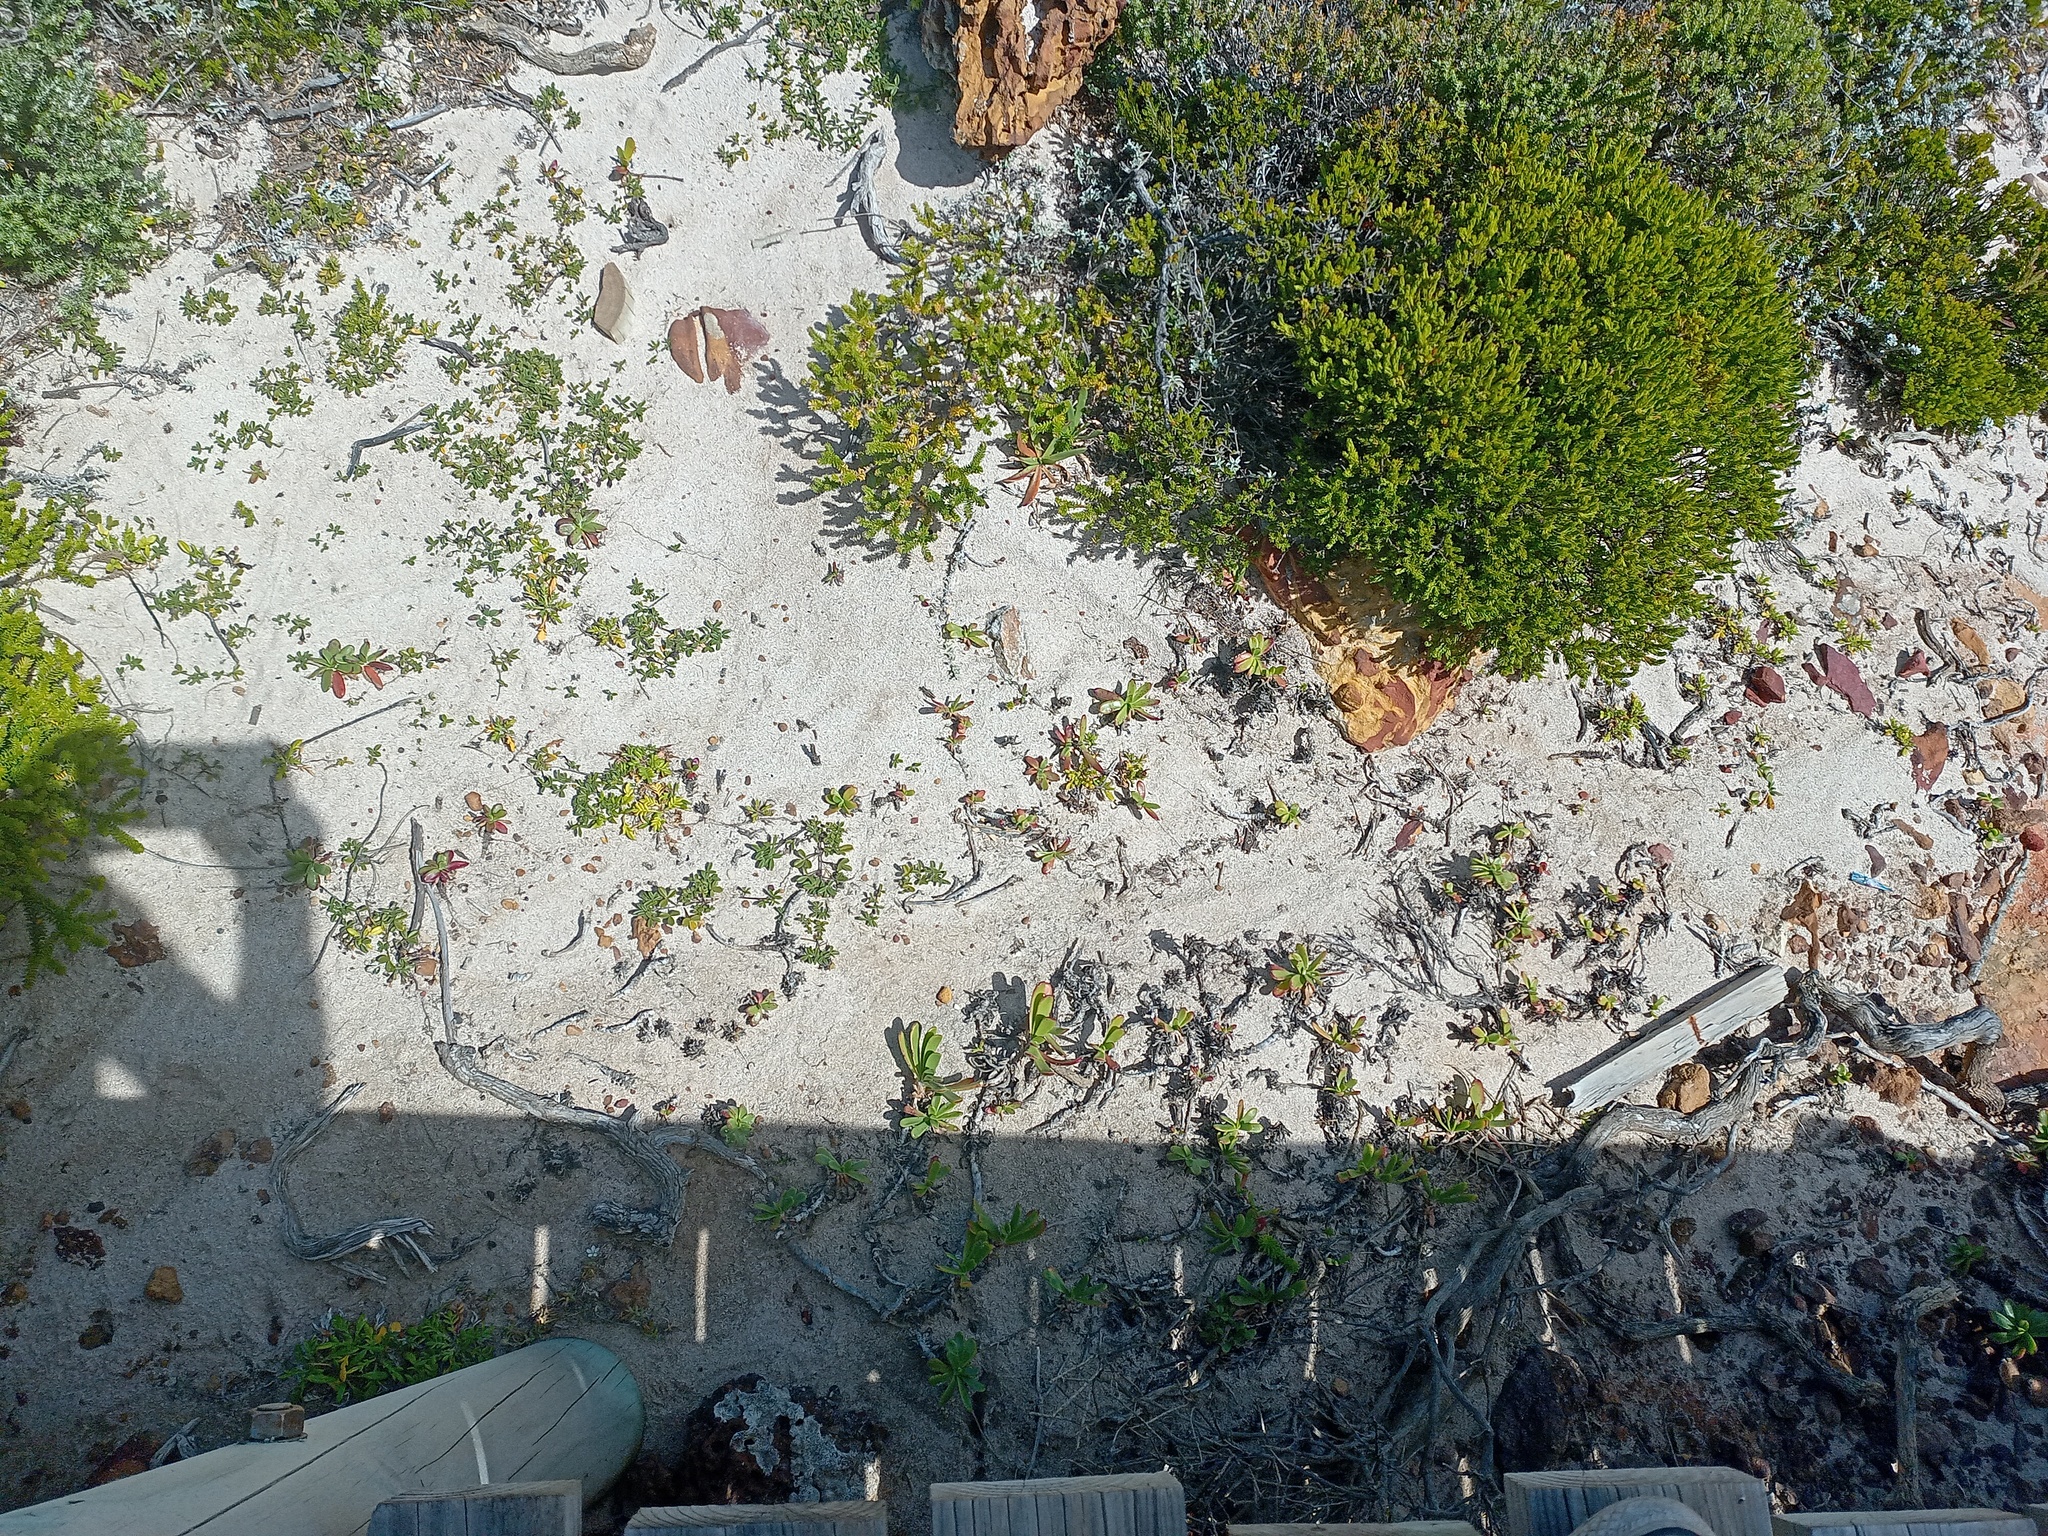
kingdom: Plantae
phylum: Tracheophyta
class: Magnoliopsida
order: Lamiales
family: Plantaginaceae
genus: Plantago
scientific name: Plantago carnosa
